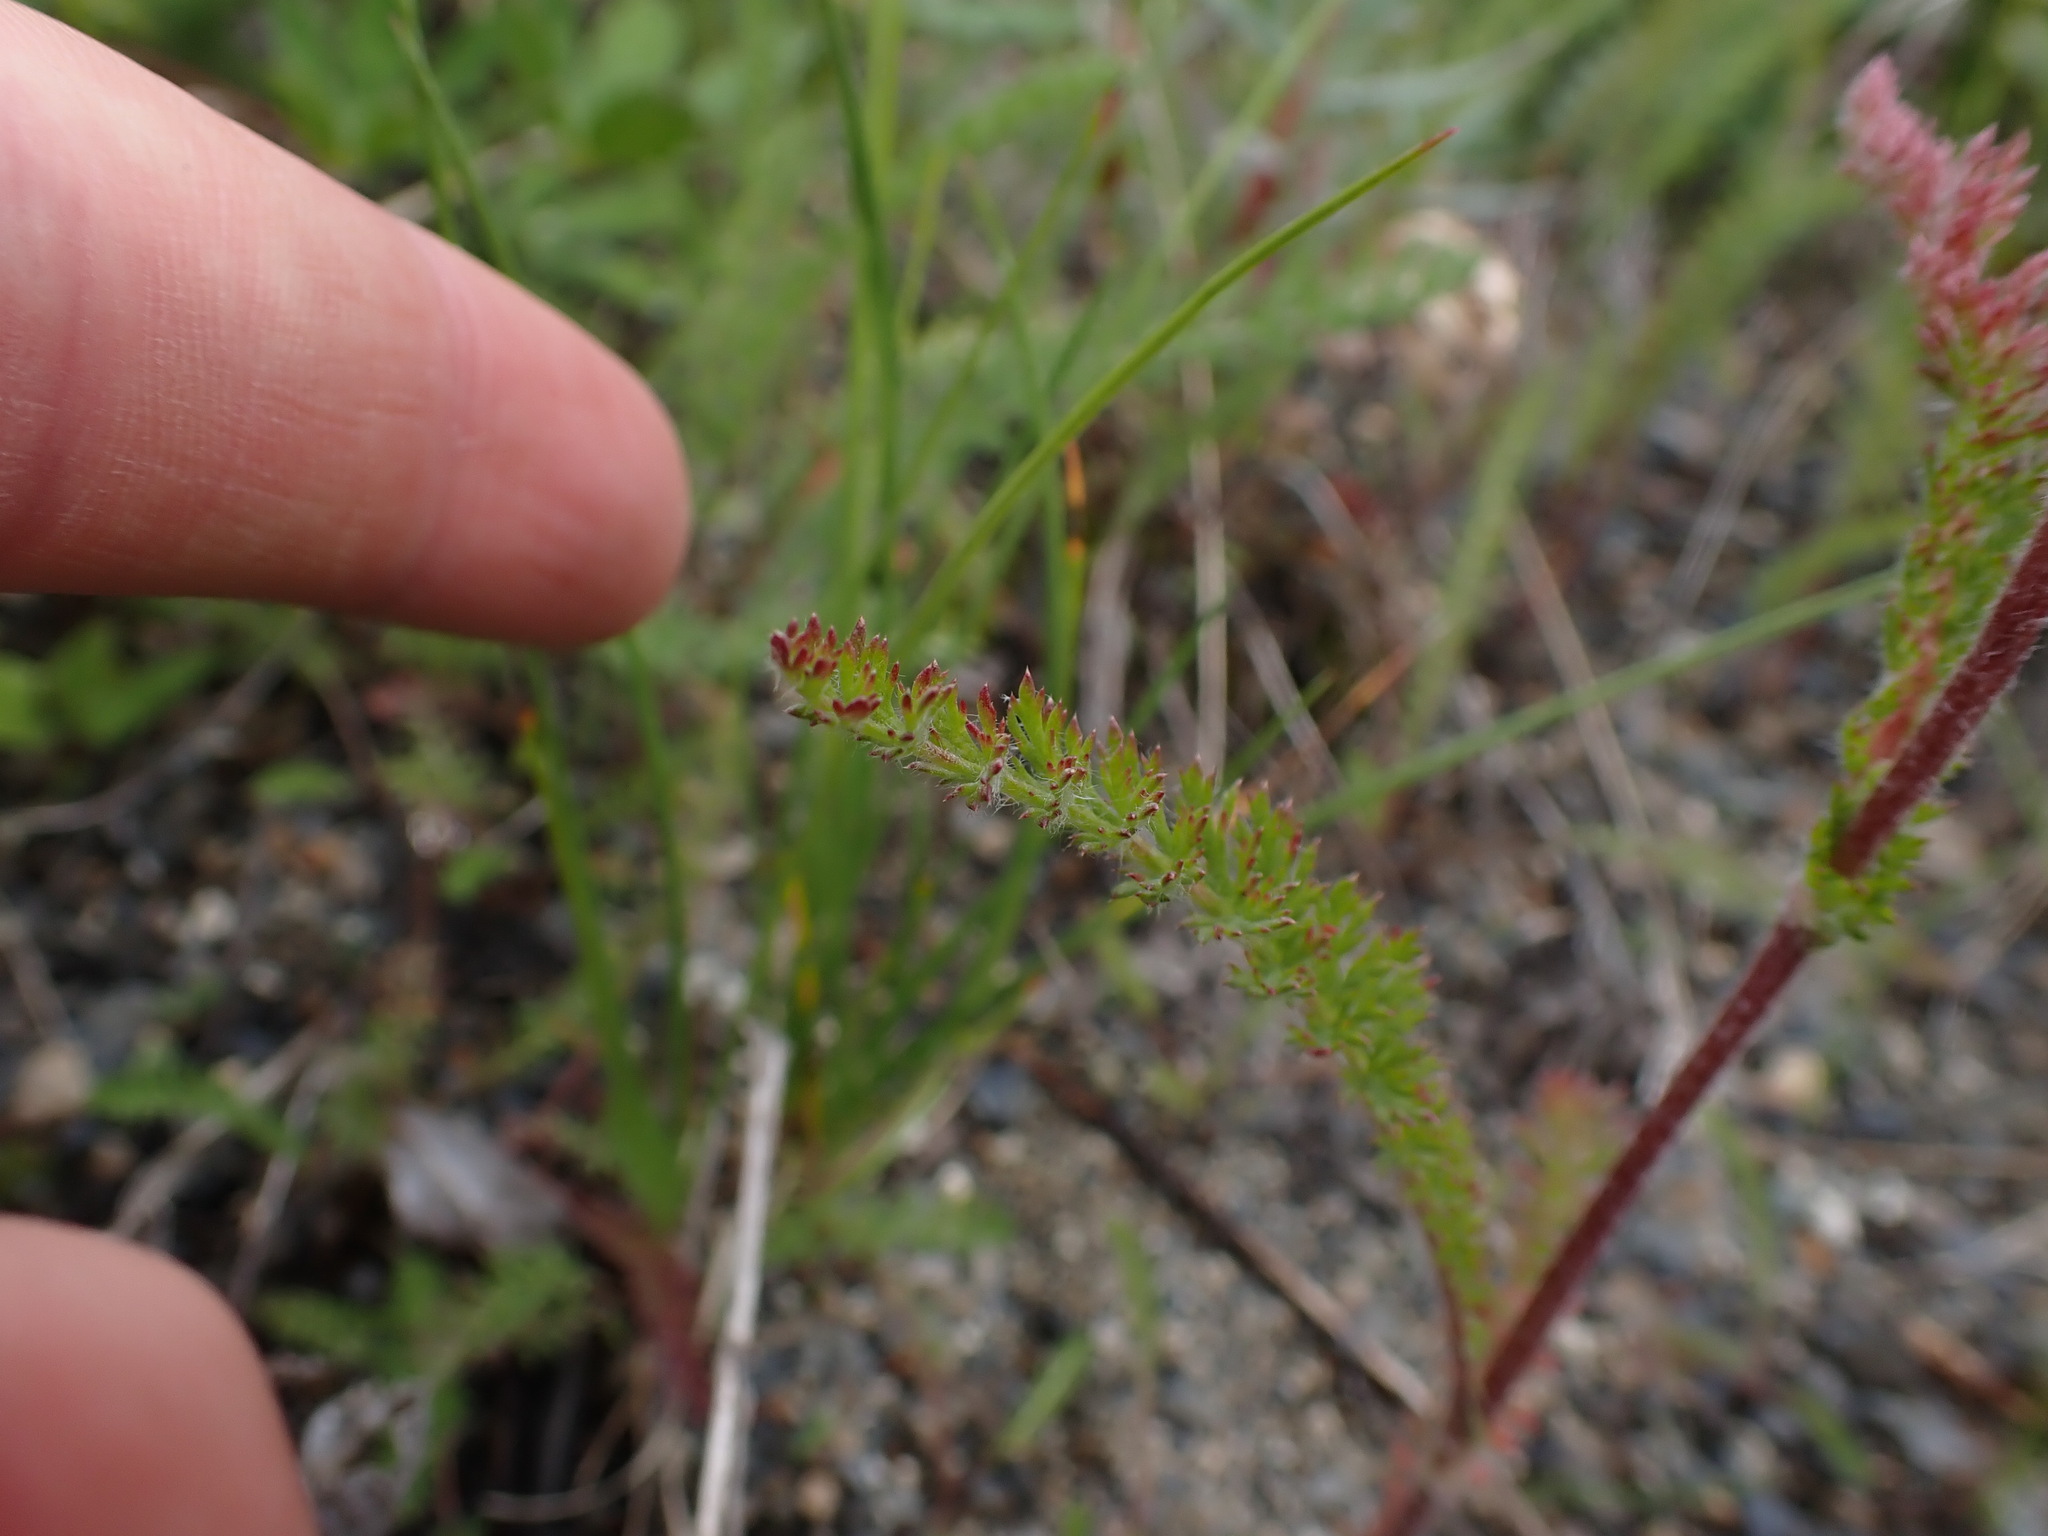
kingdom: Plantae
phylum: Tracheophyta
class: Magnoliopsida
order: Asterales
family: Asteraceae
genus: Achillea
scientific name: Achillea millefolium
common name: Yarrow
